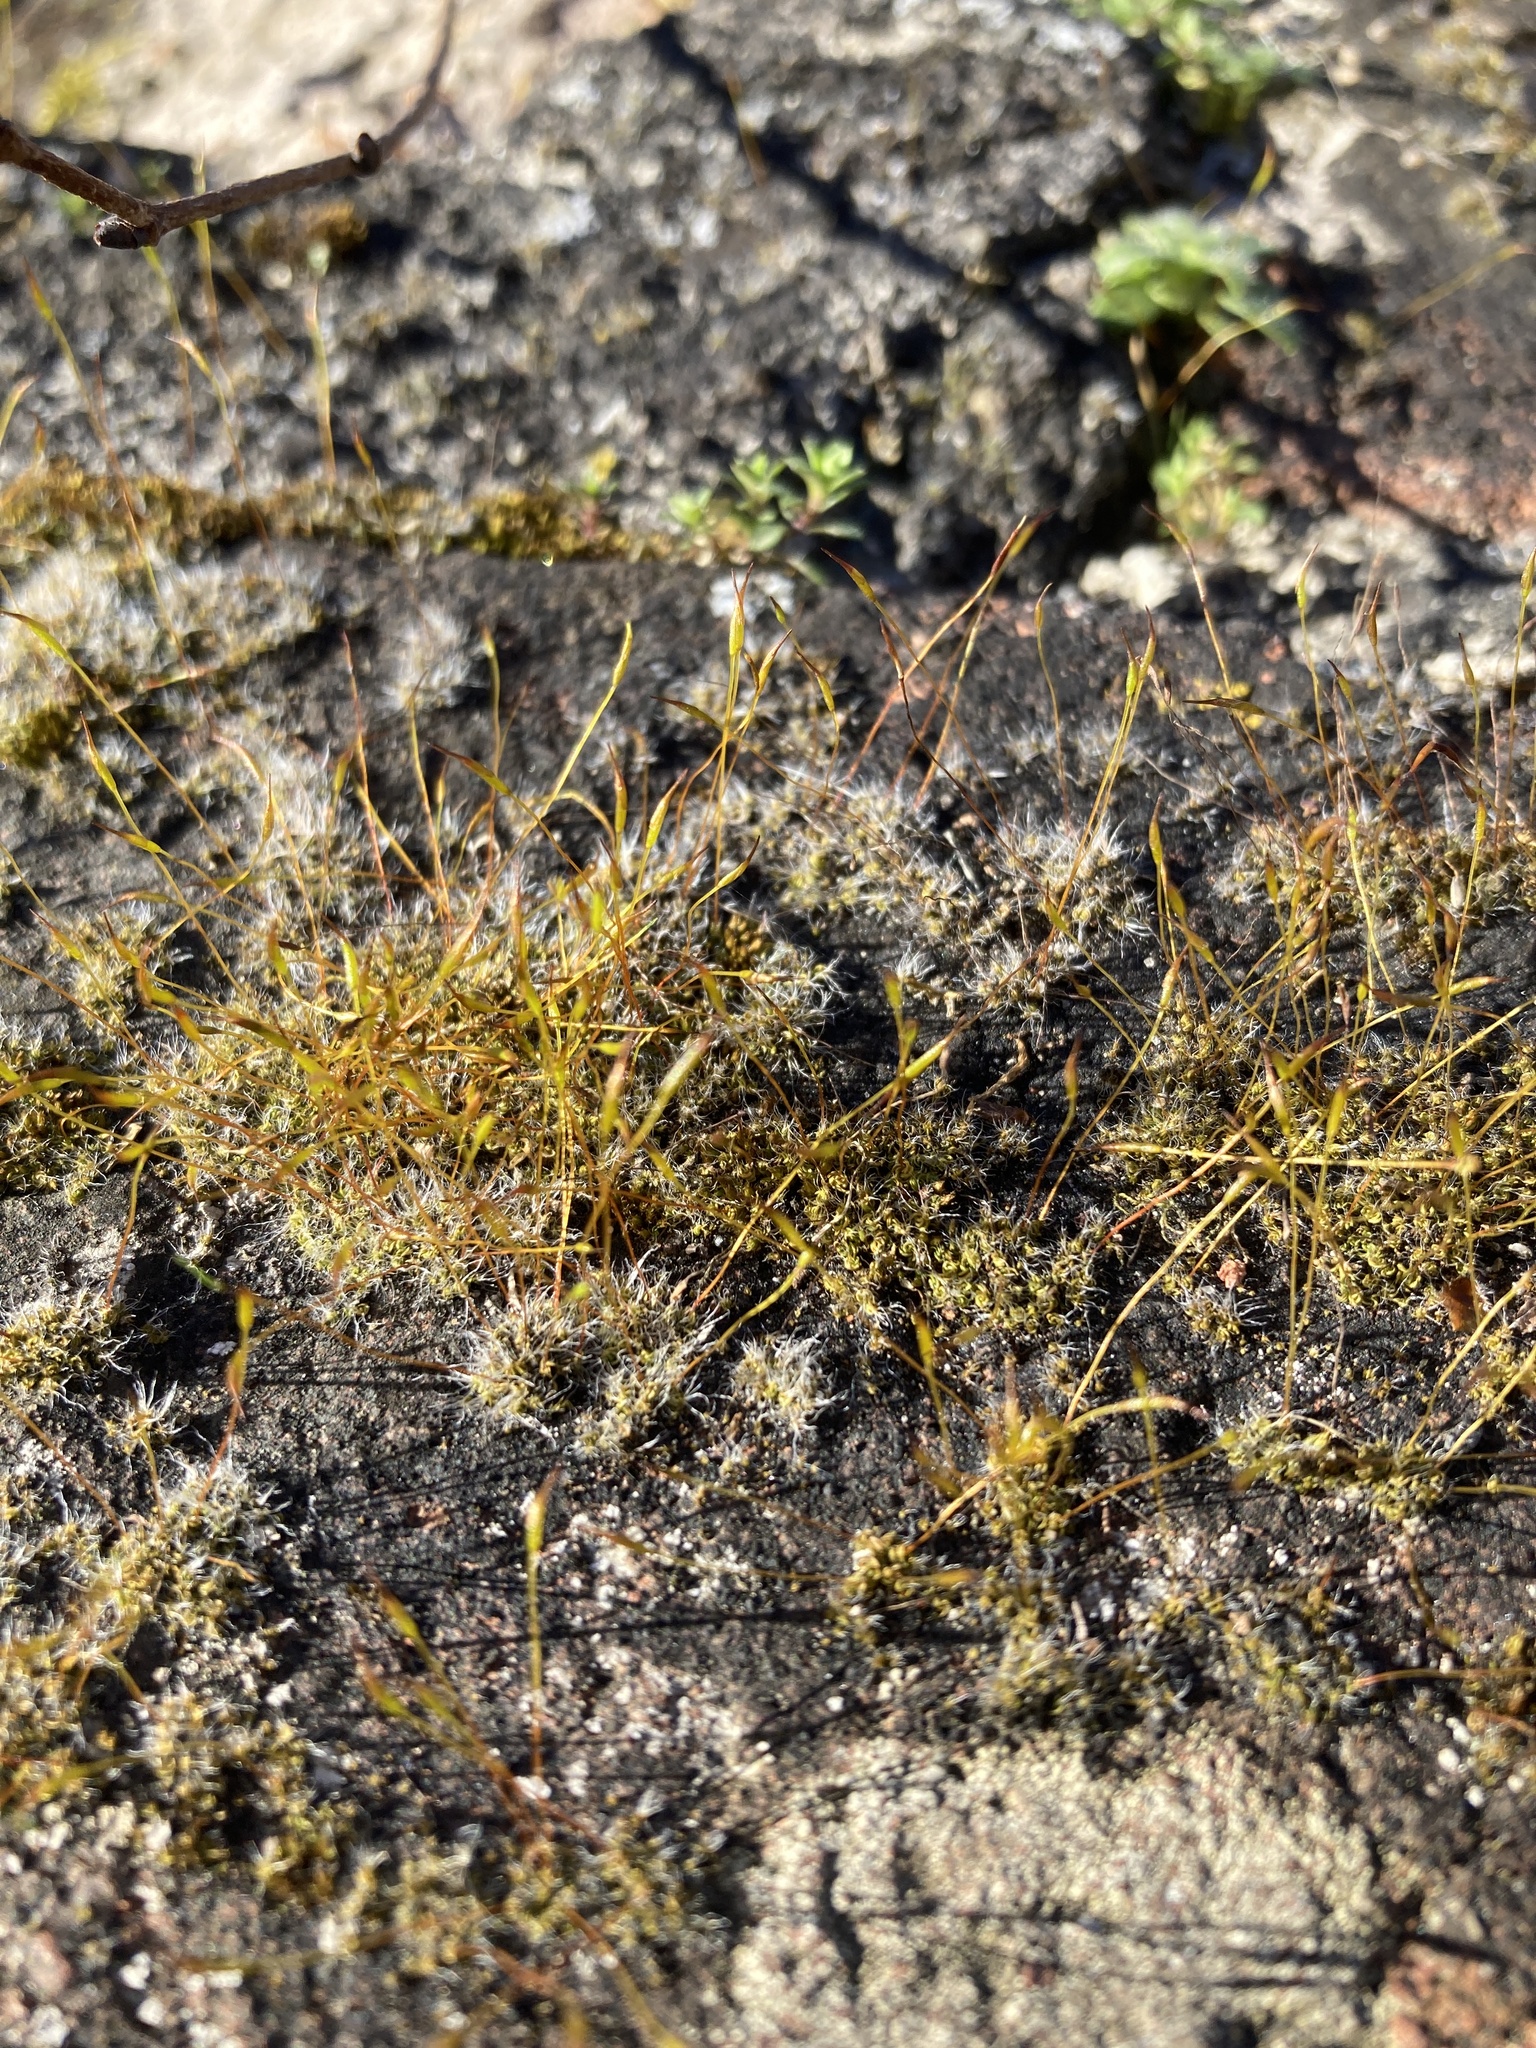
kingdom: Plantae
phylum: Bryophyta
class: Bryopsida
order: Pottiales
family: Pottiaceae
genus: Tortula
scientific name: Tortula muralis
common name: Wall screw-moss
